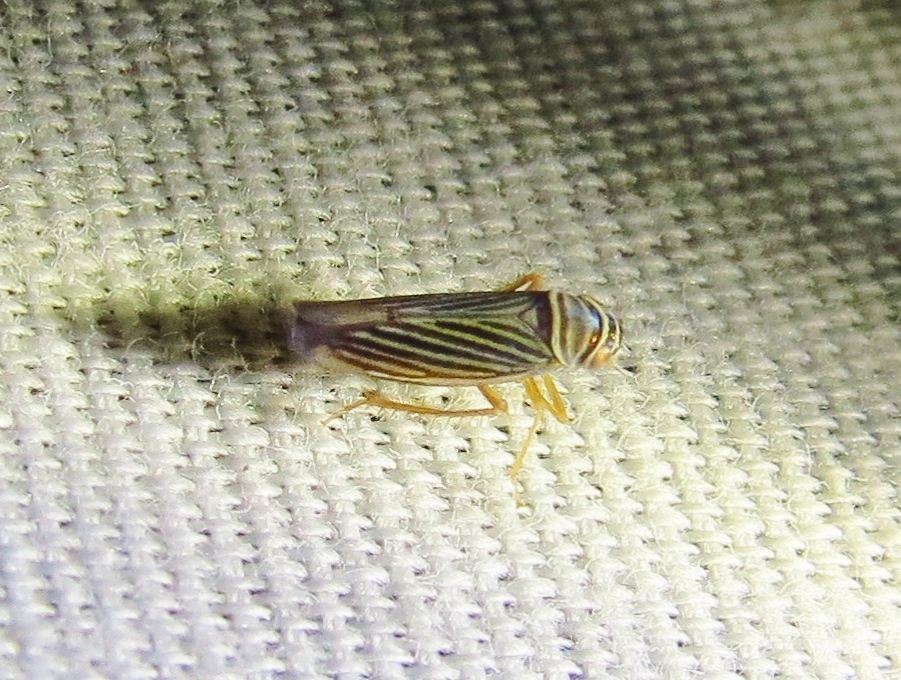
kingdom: Animalia
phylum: Arthropoda
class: Insecta
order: Hemiptera
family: Cicadellidae
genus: Tylozygus
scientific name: Tylozygus bifidus
